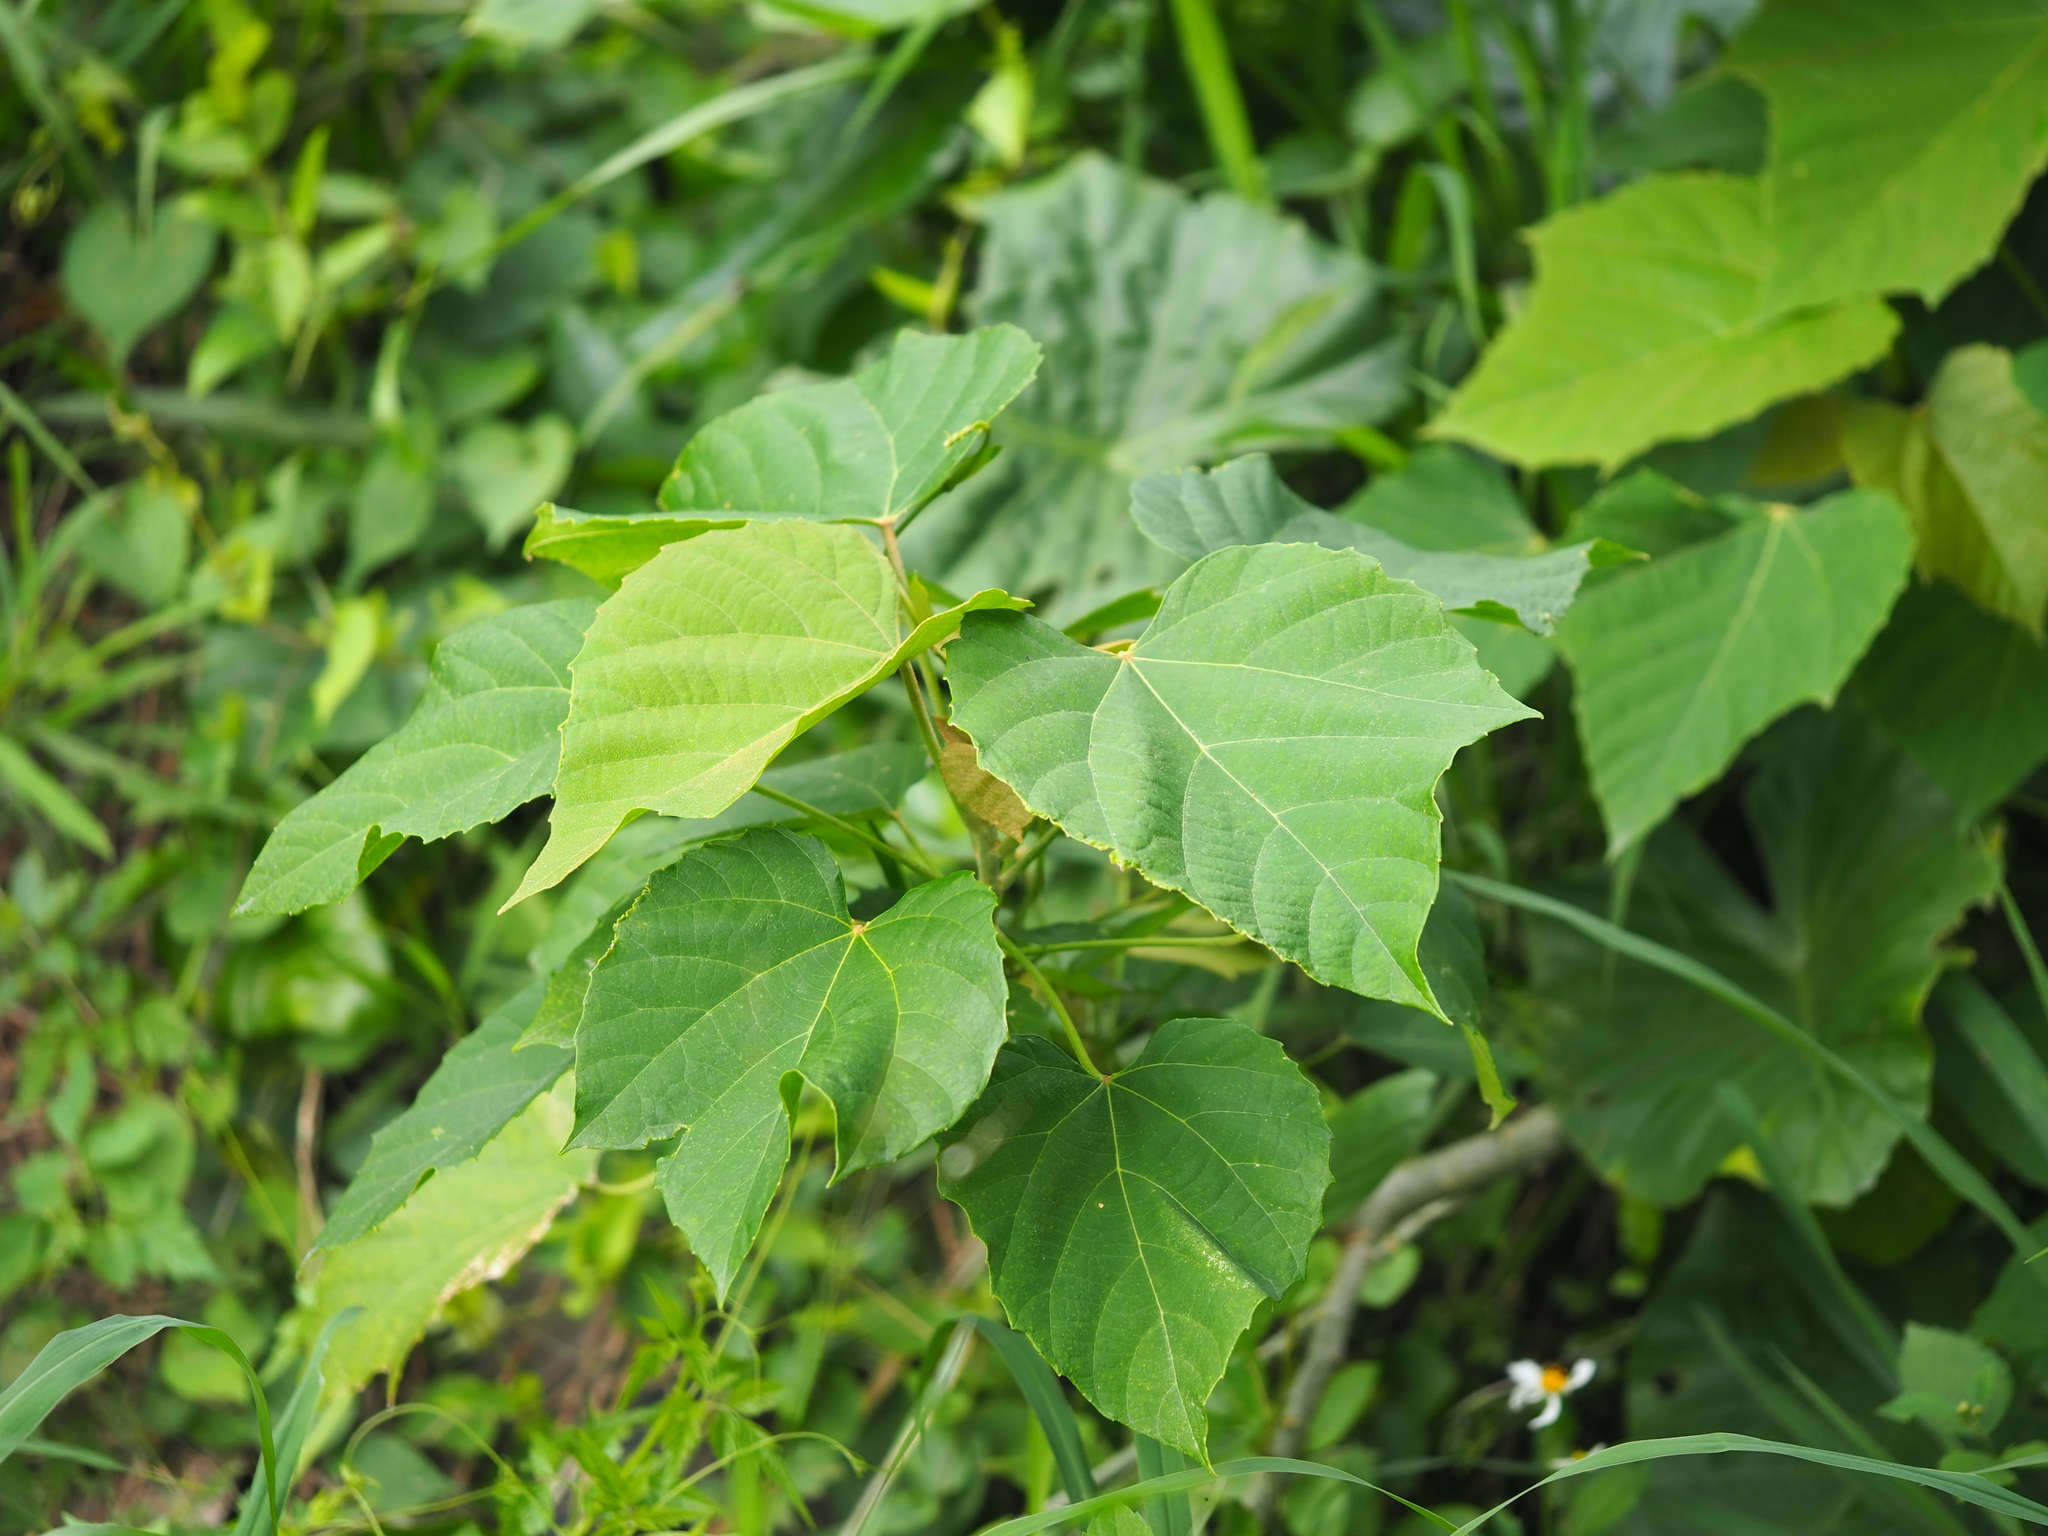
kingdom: Plantae
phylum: Tracheophyta
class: Magnoliopsida
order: Malpighiales
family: Euphorbiaceae
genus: Melanolepis
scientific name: Melanolepis multiglandulosa
